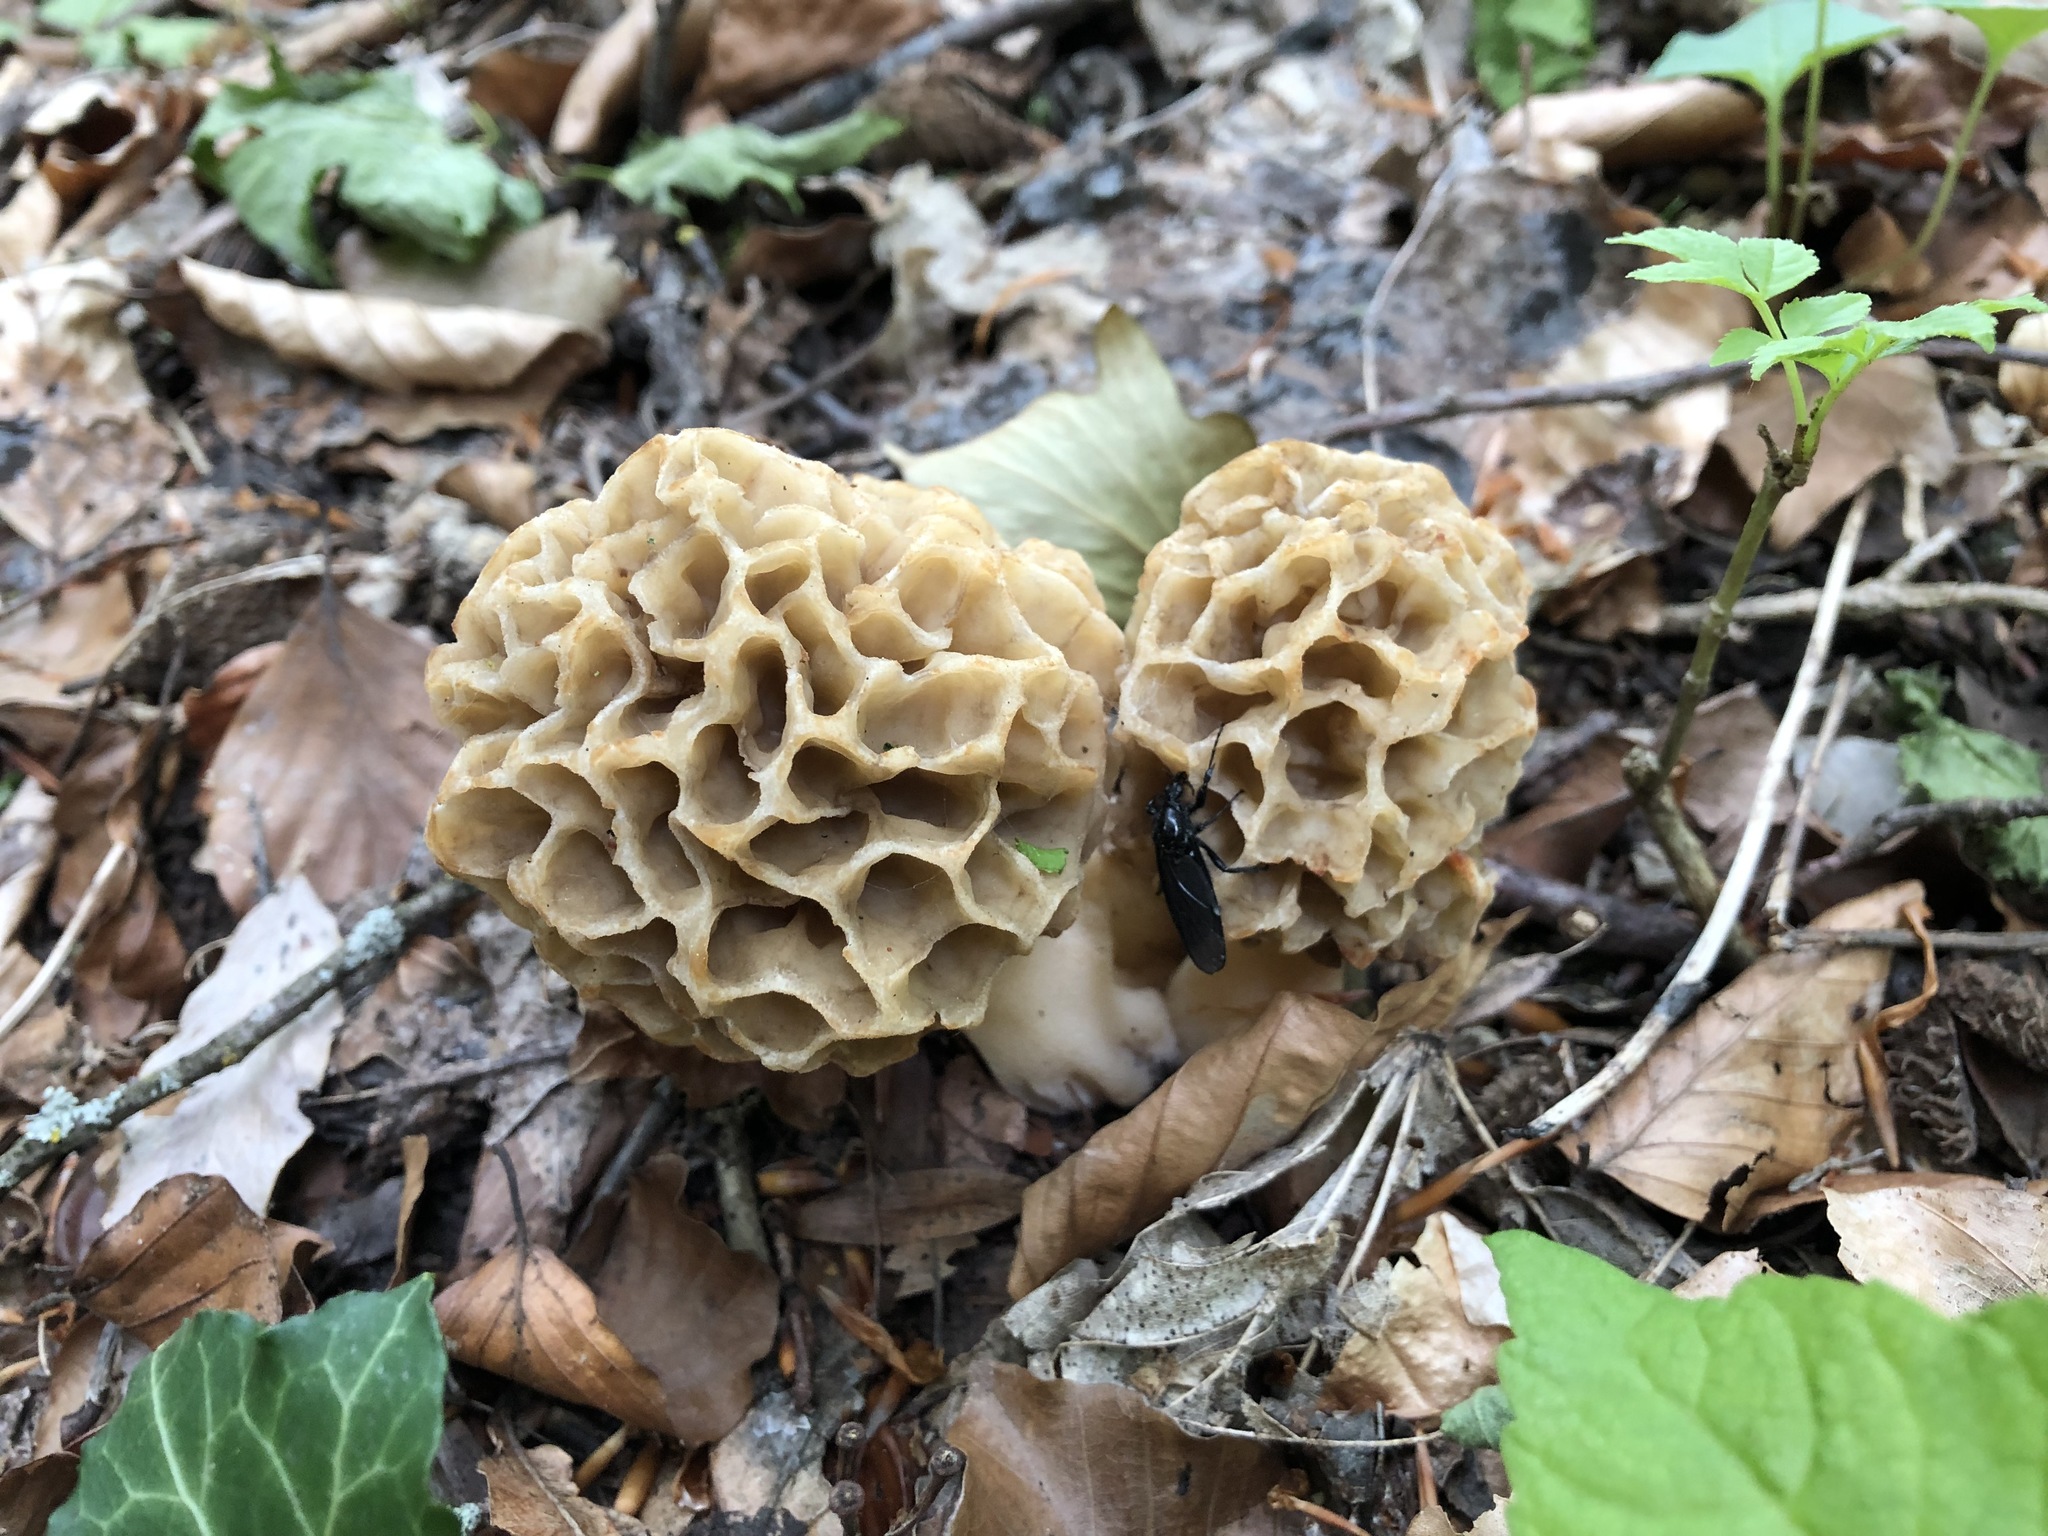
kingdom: Fungi
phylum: Ascomycota
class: Pezizomycetes
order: Pezizales
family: Morchellaceae
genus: Morchella
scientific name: Morchella esculenta
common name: Morel
